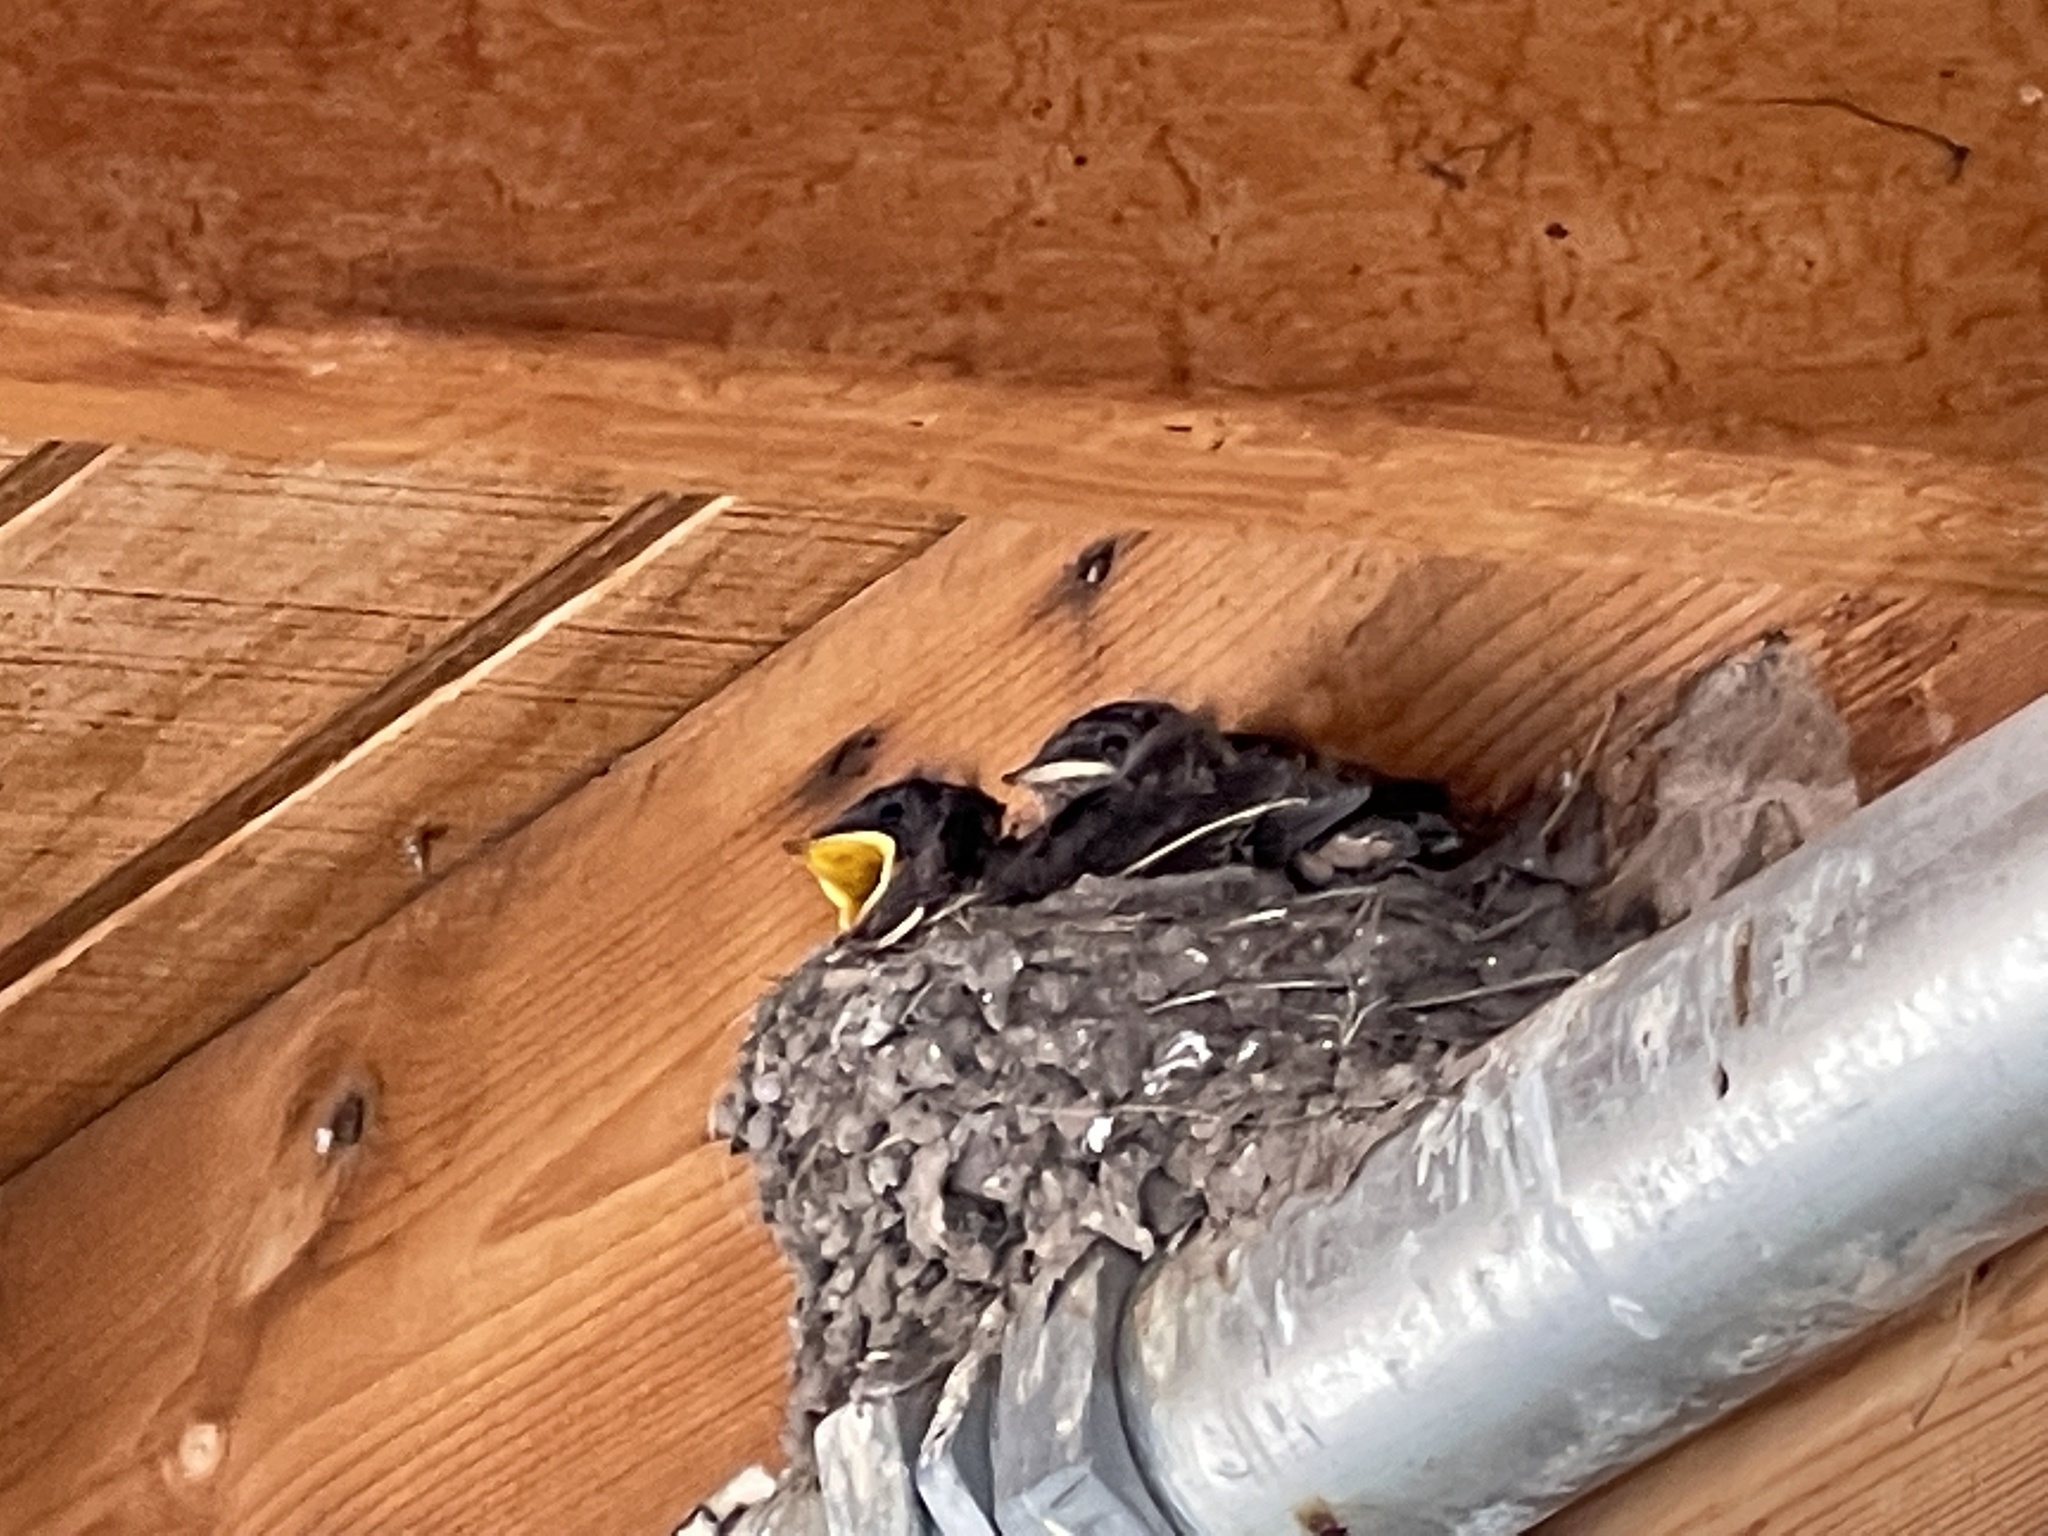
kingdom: Animalia
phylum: Chordata
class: Aves
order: Passeriformes
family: Hirundinidae
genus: Hirundo
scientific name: Hirundo rustica
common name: Barn swallow
